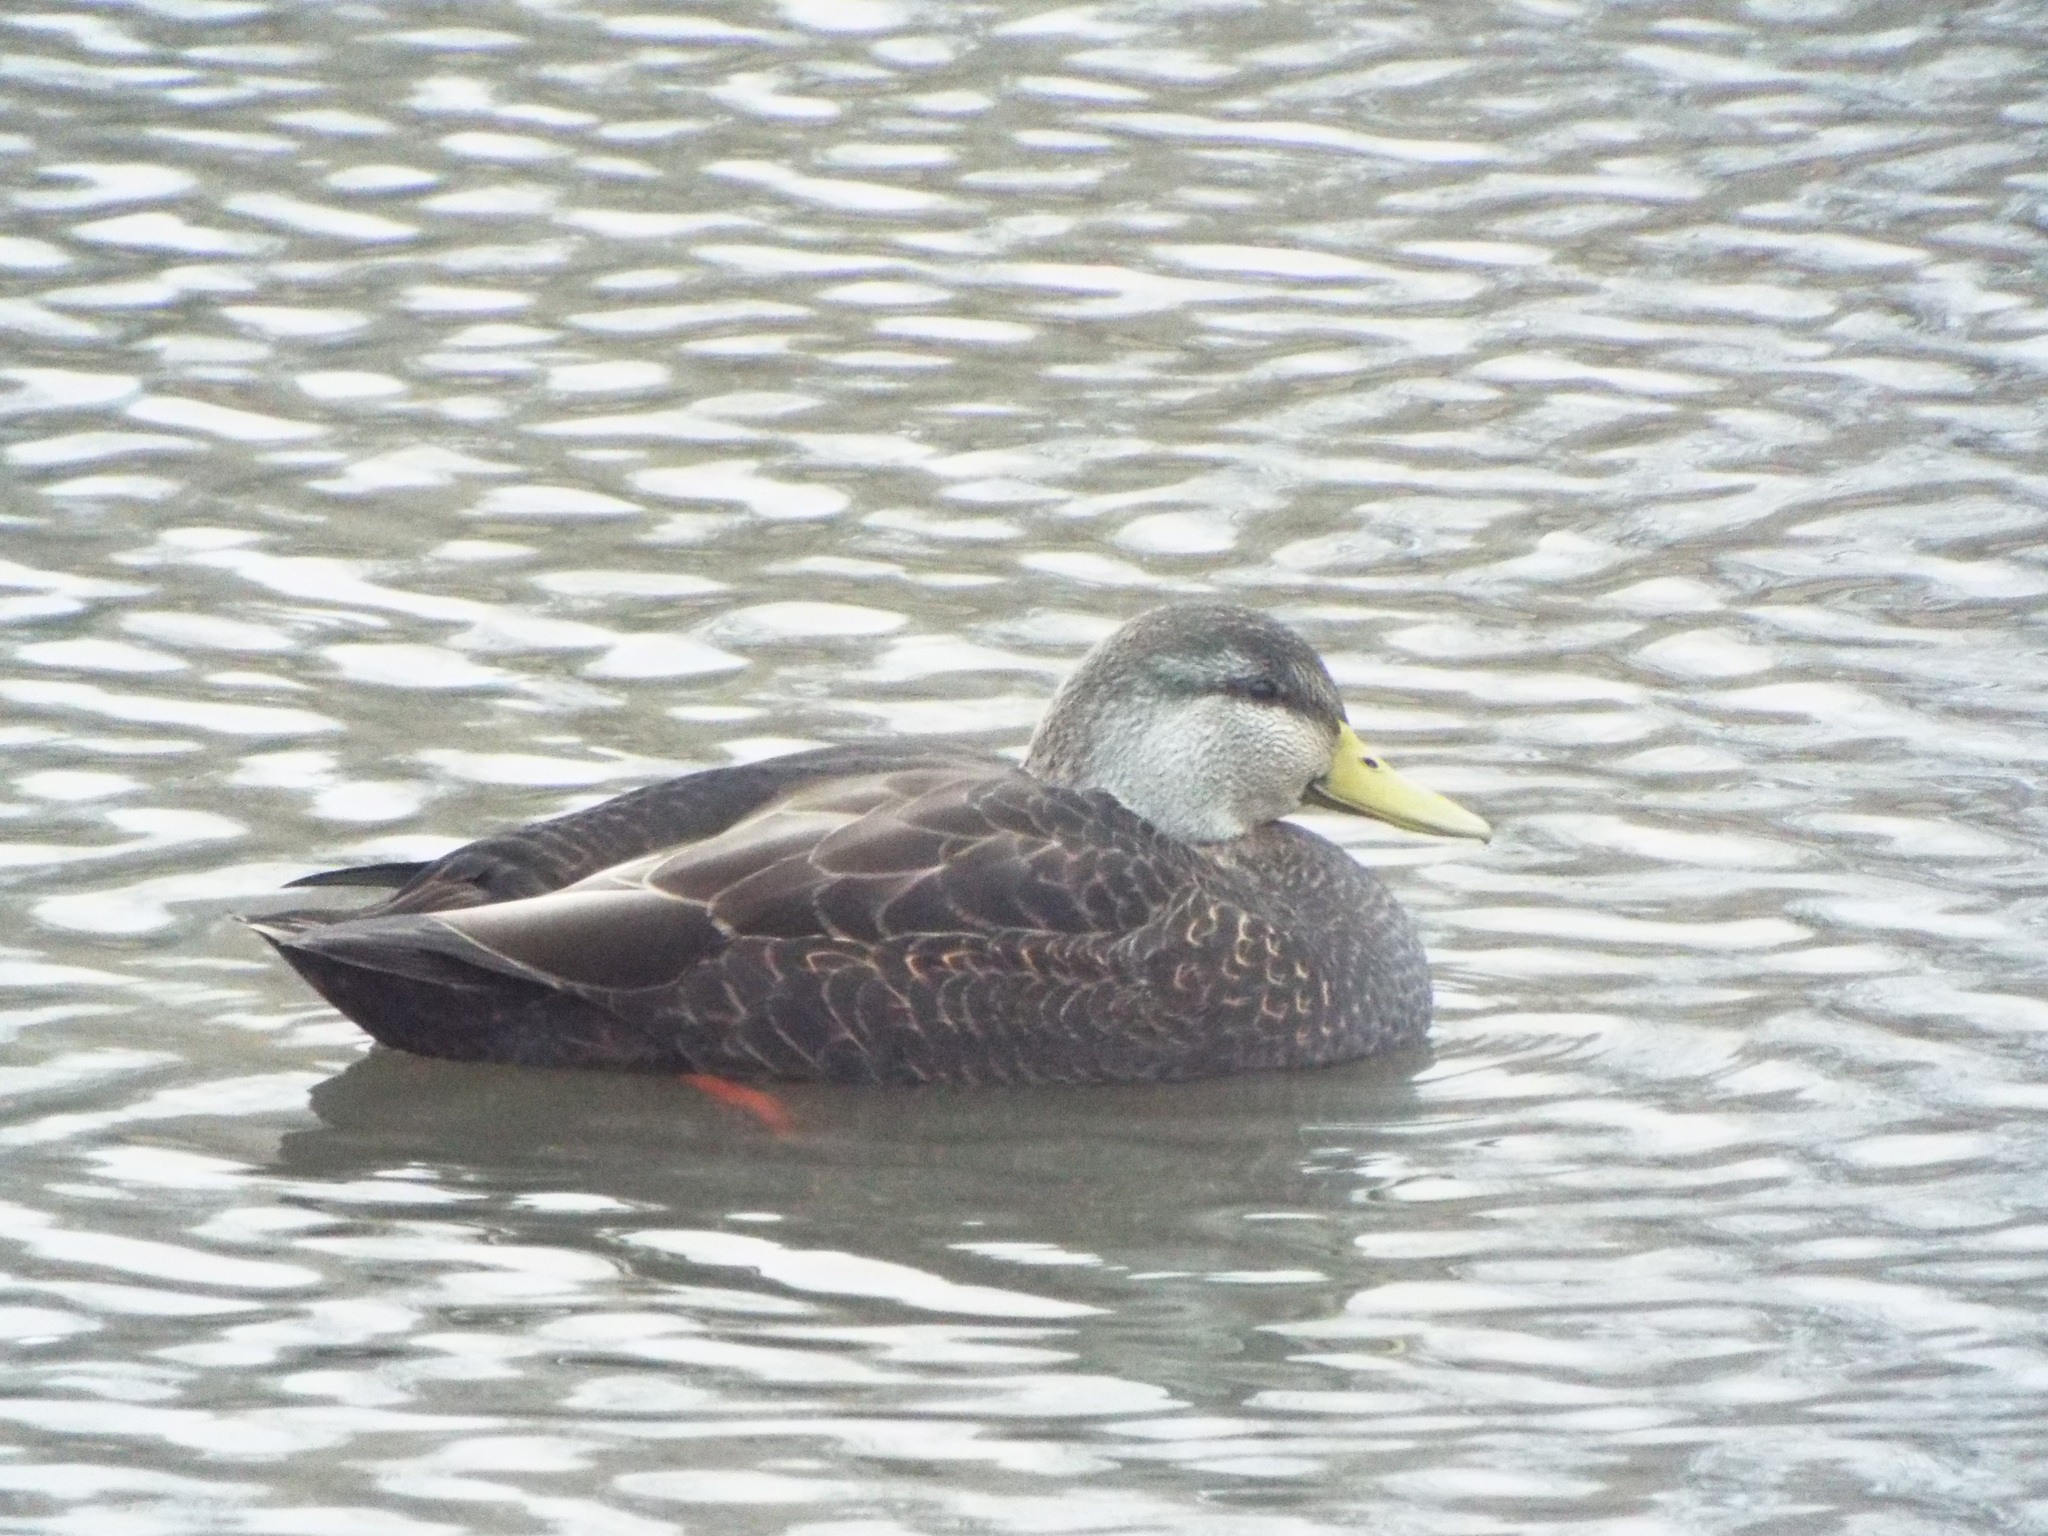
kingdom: Animalia
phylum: Chordata
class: Aves
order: Anseriformes
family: Anatidae
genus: Anas
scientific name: Anas rubripes
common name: American black duck
